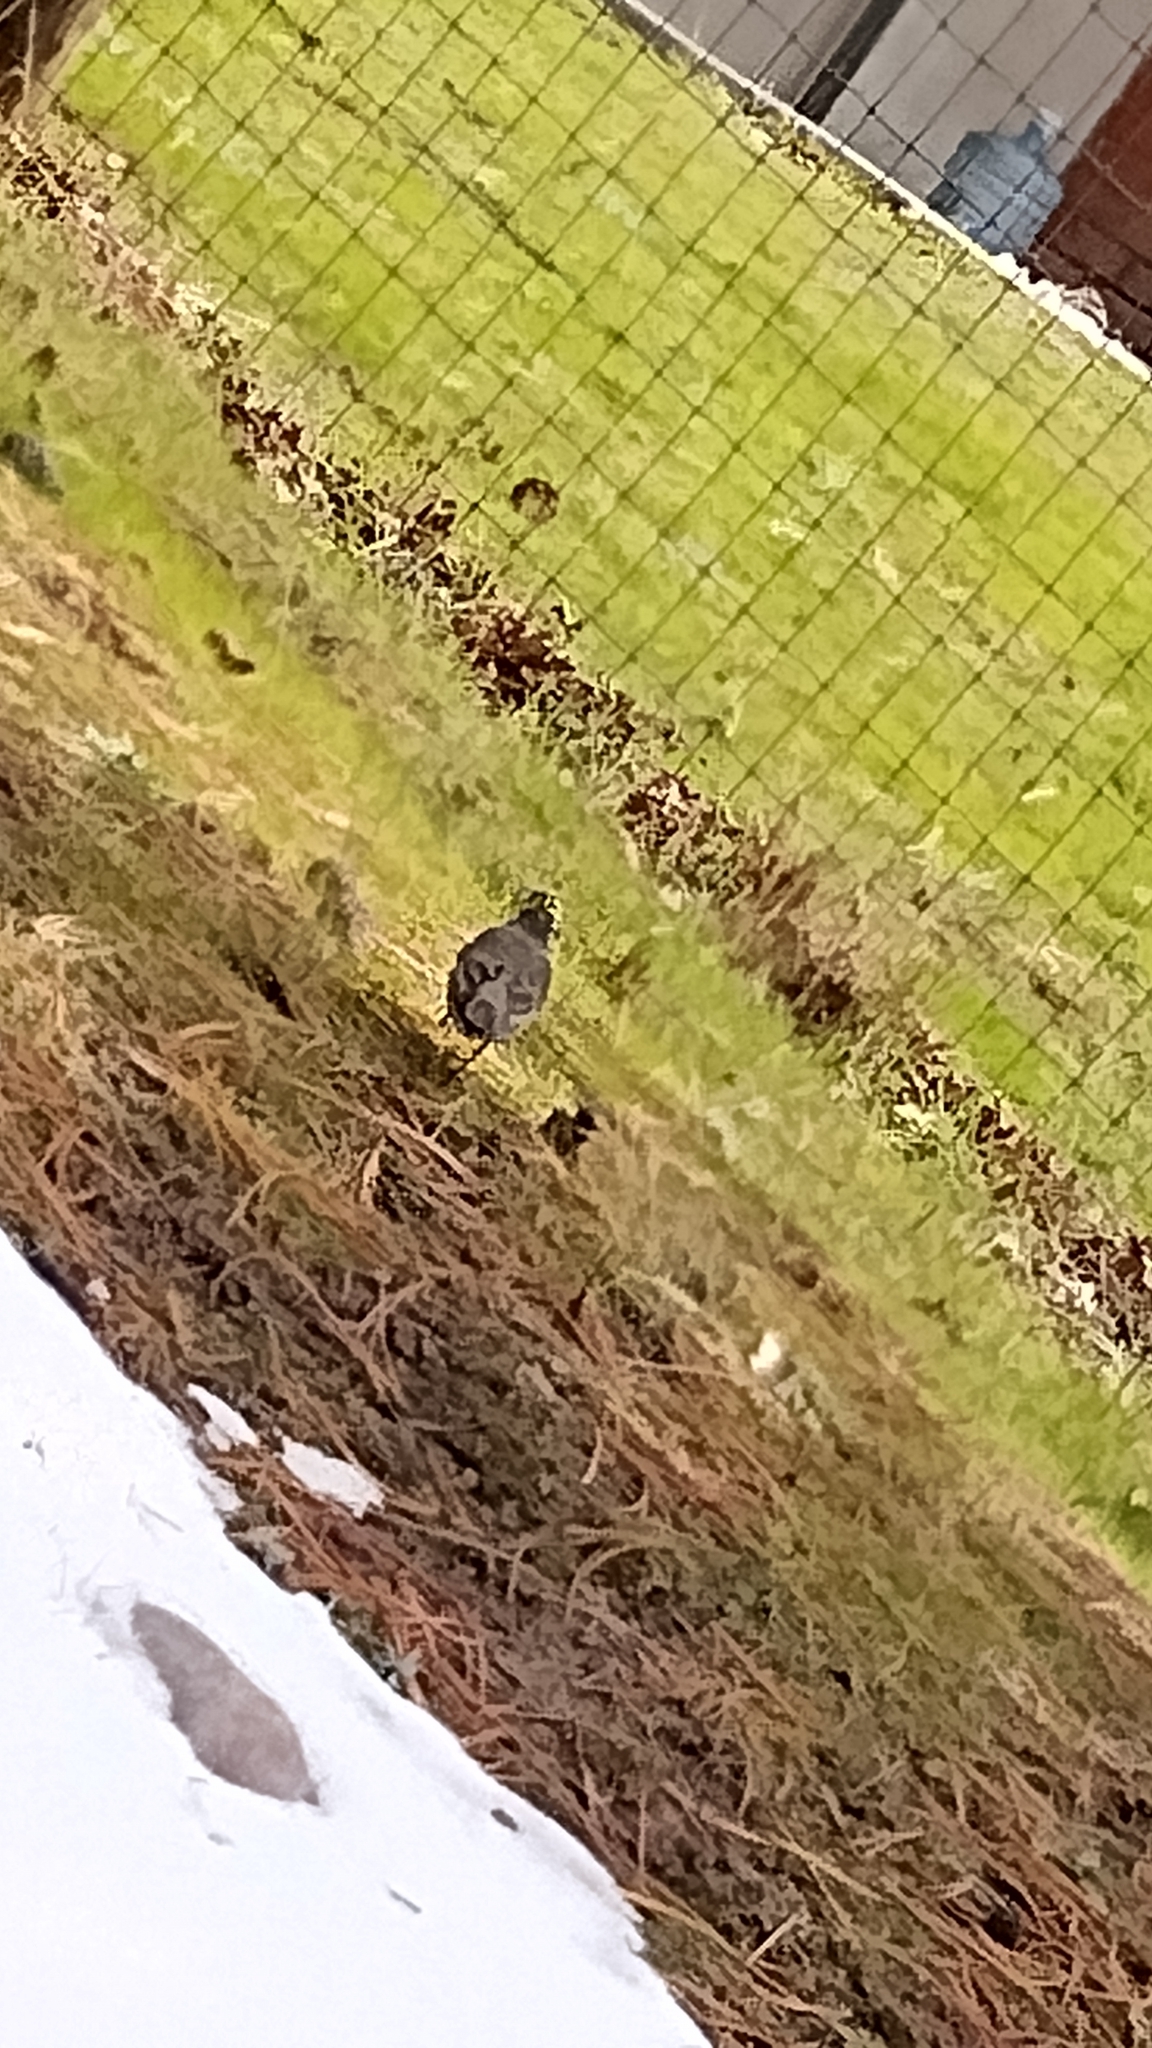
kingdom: Animalia
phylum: Chordata
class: Aves
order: Passeriformes
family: Turdidae
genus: Turdus
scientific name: Turdus migratorius
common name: American robin
